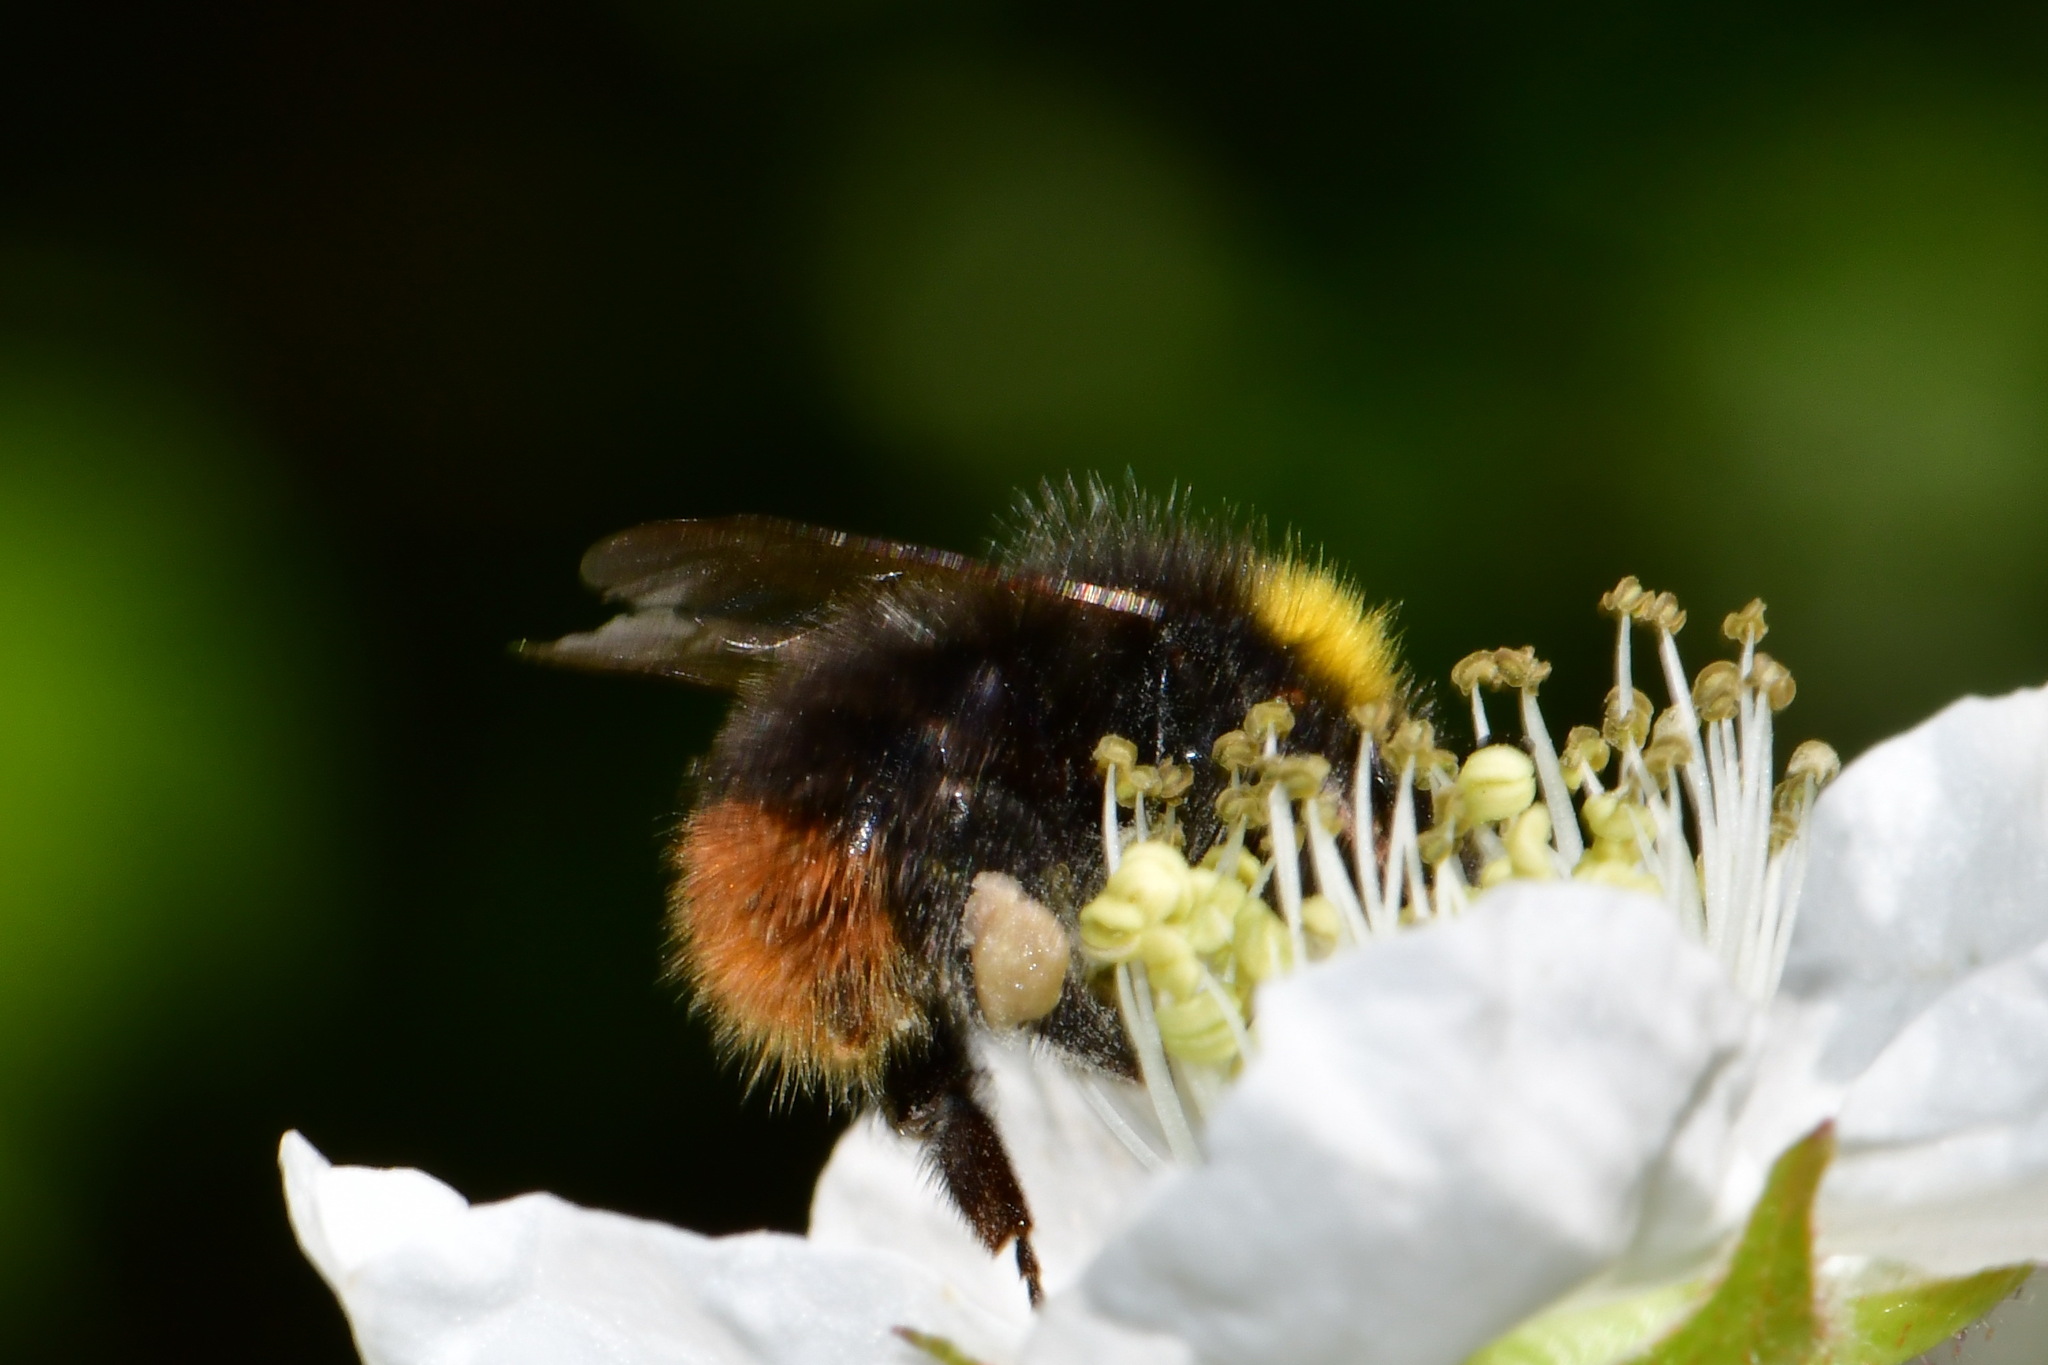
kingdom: Animalia
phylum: Arthropoda
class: Insecta
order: Hymenoptera
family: Apidae
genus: Bombus
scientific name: Bombus pratorum
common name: Early humble-bee
